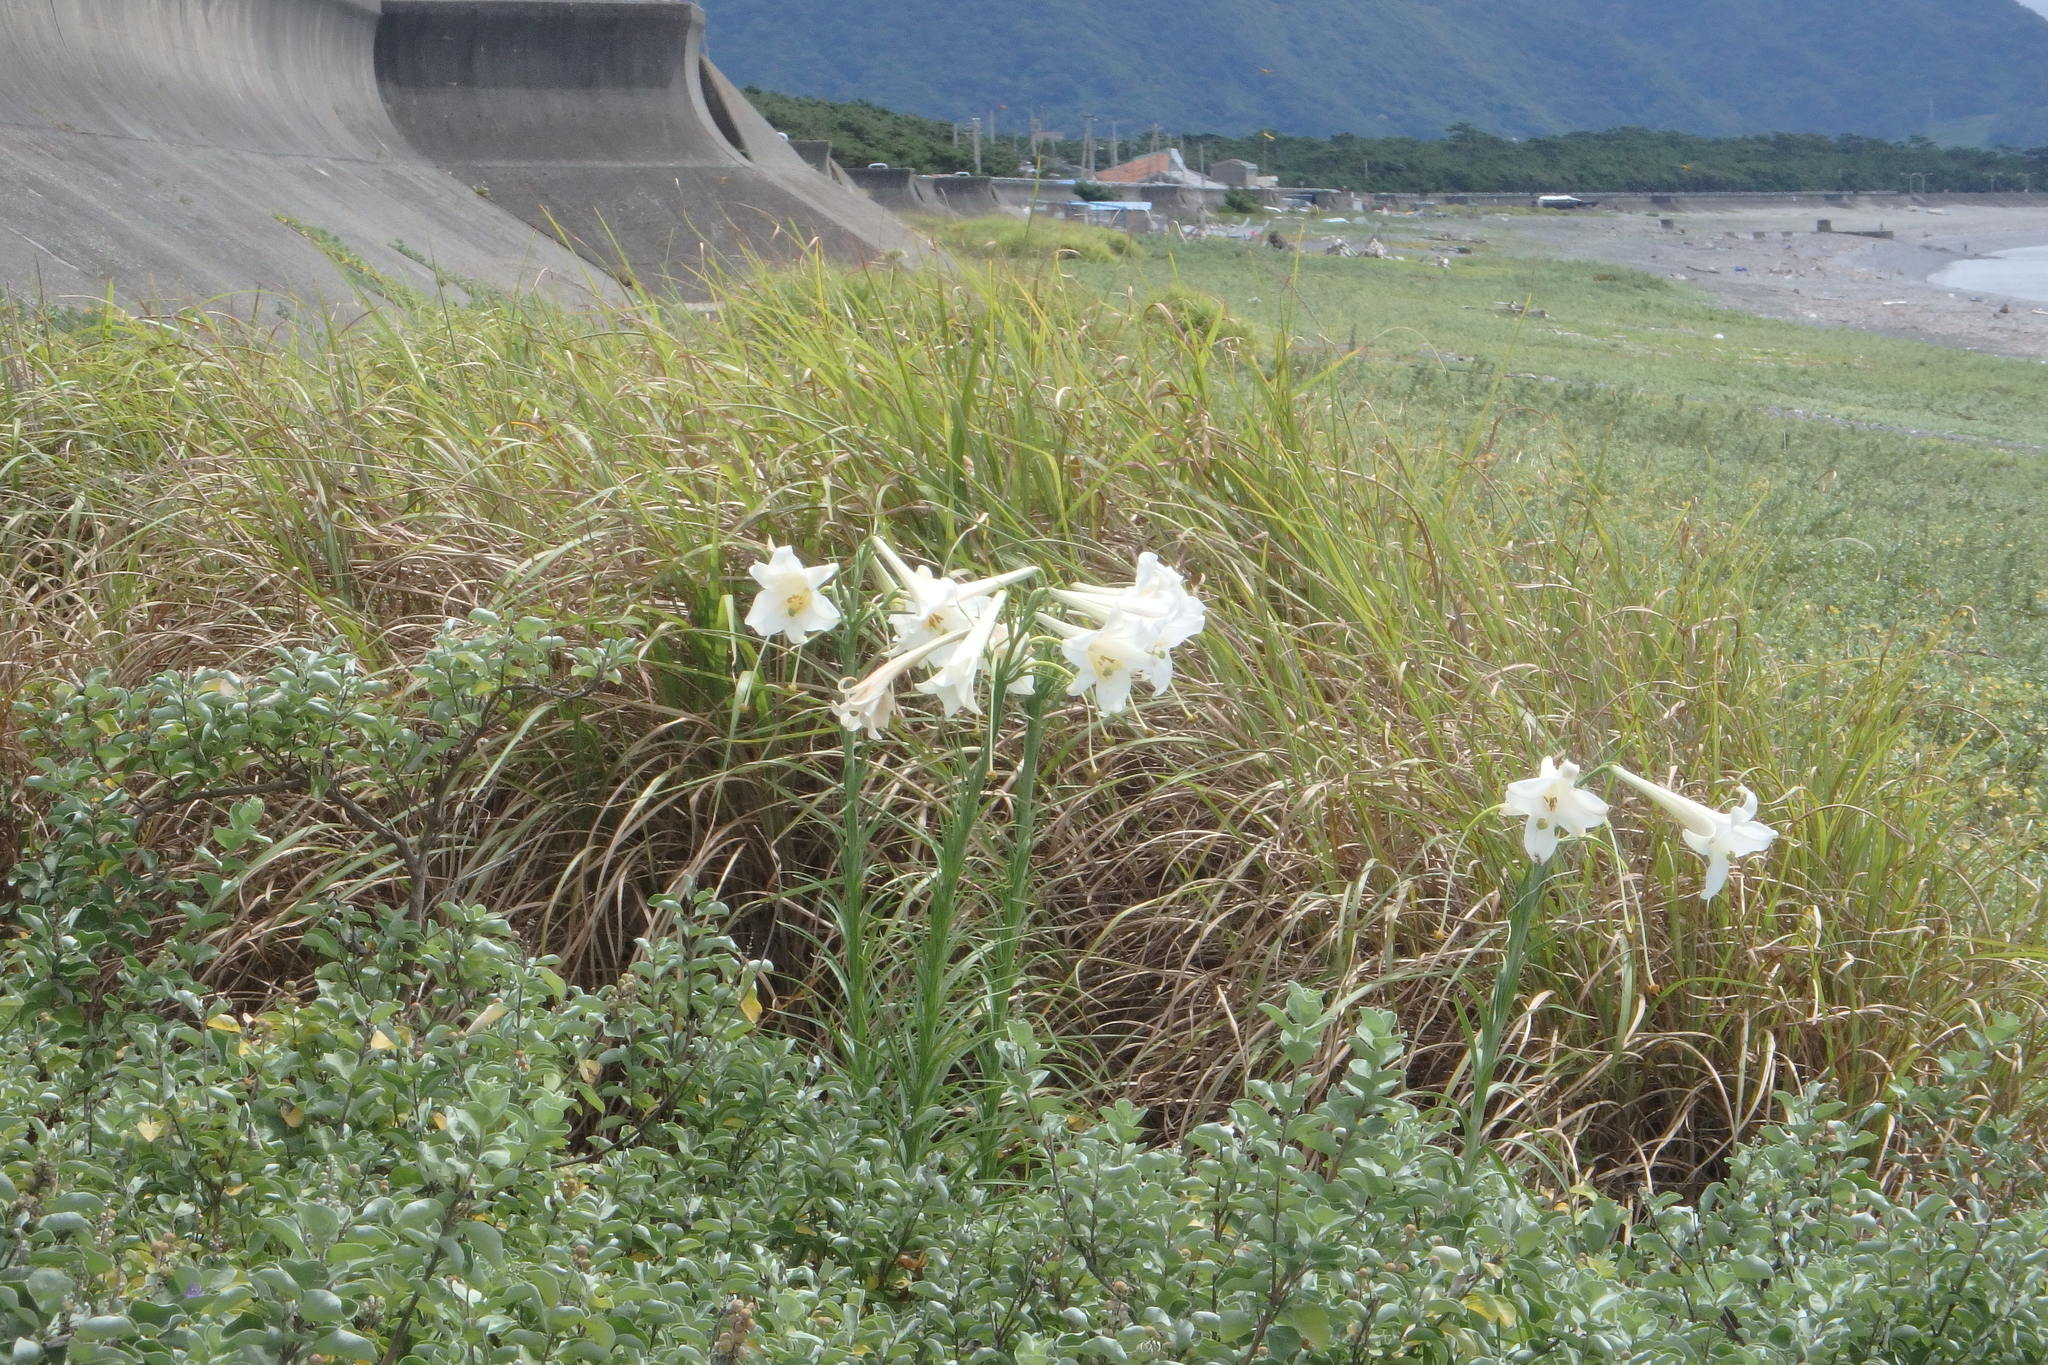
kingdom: Plantae
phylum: Tracheophyta
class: Liliopsida
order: Liliales
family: Liliaceae
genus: Lilium
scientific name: Lilium formosanum
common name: Formosa lily
